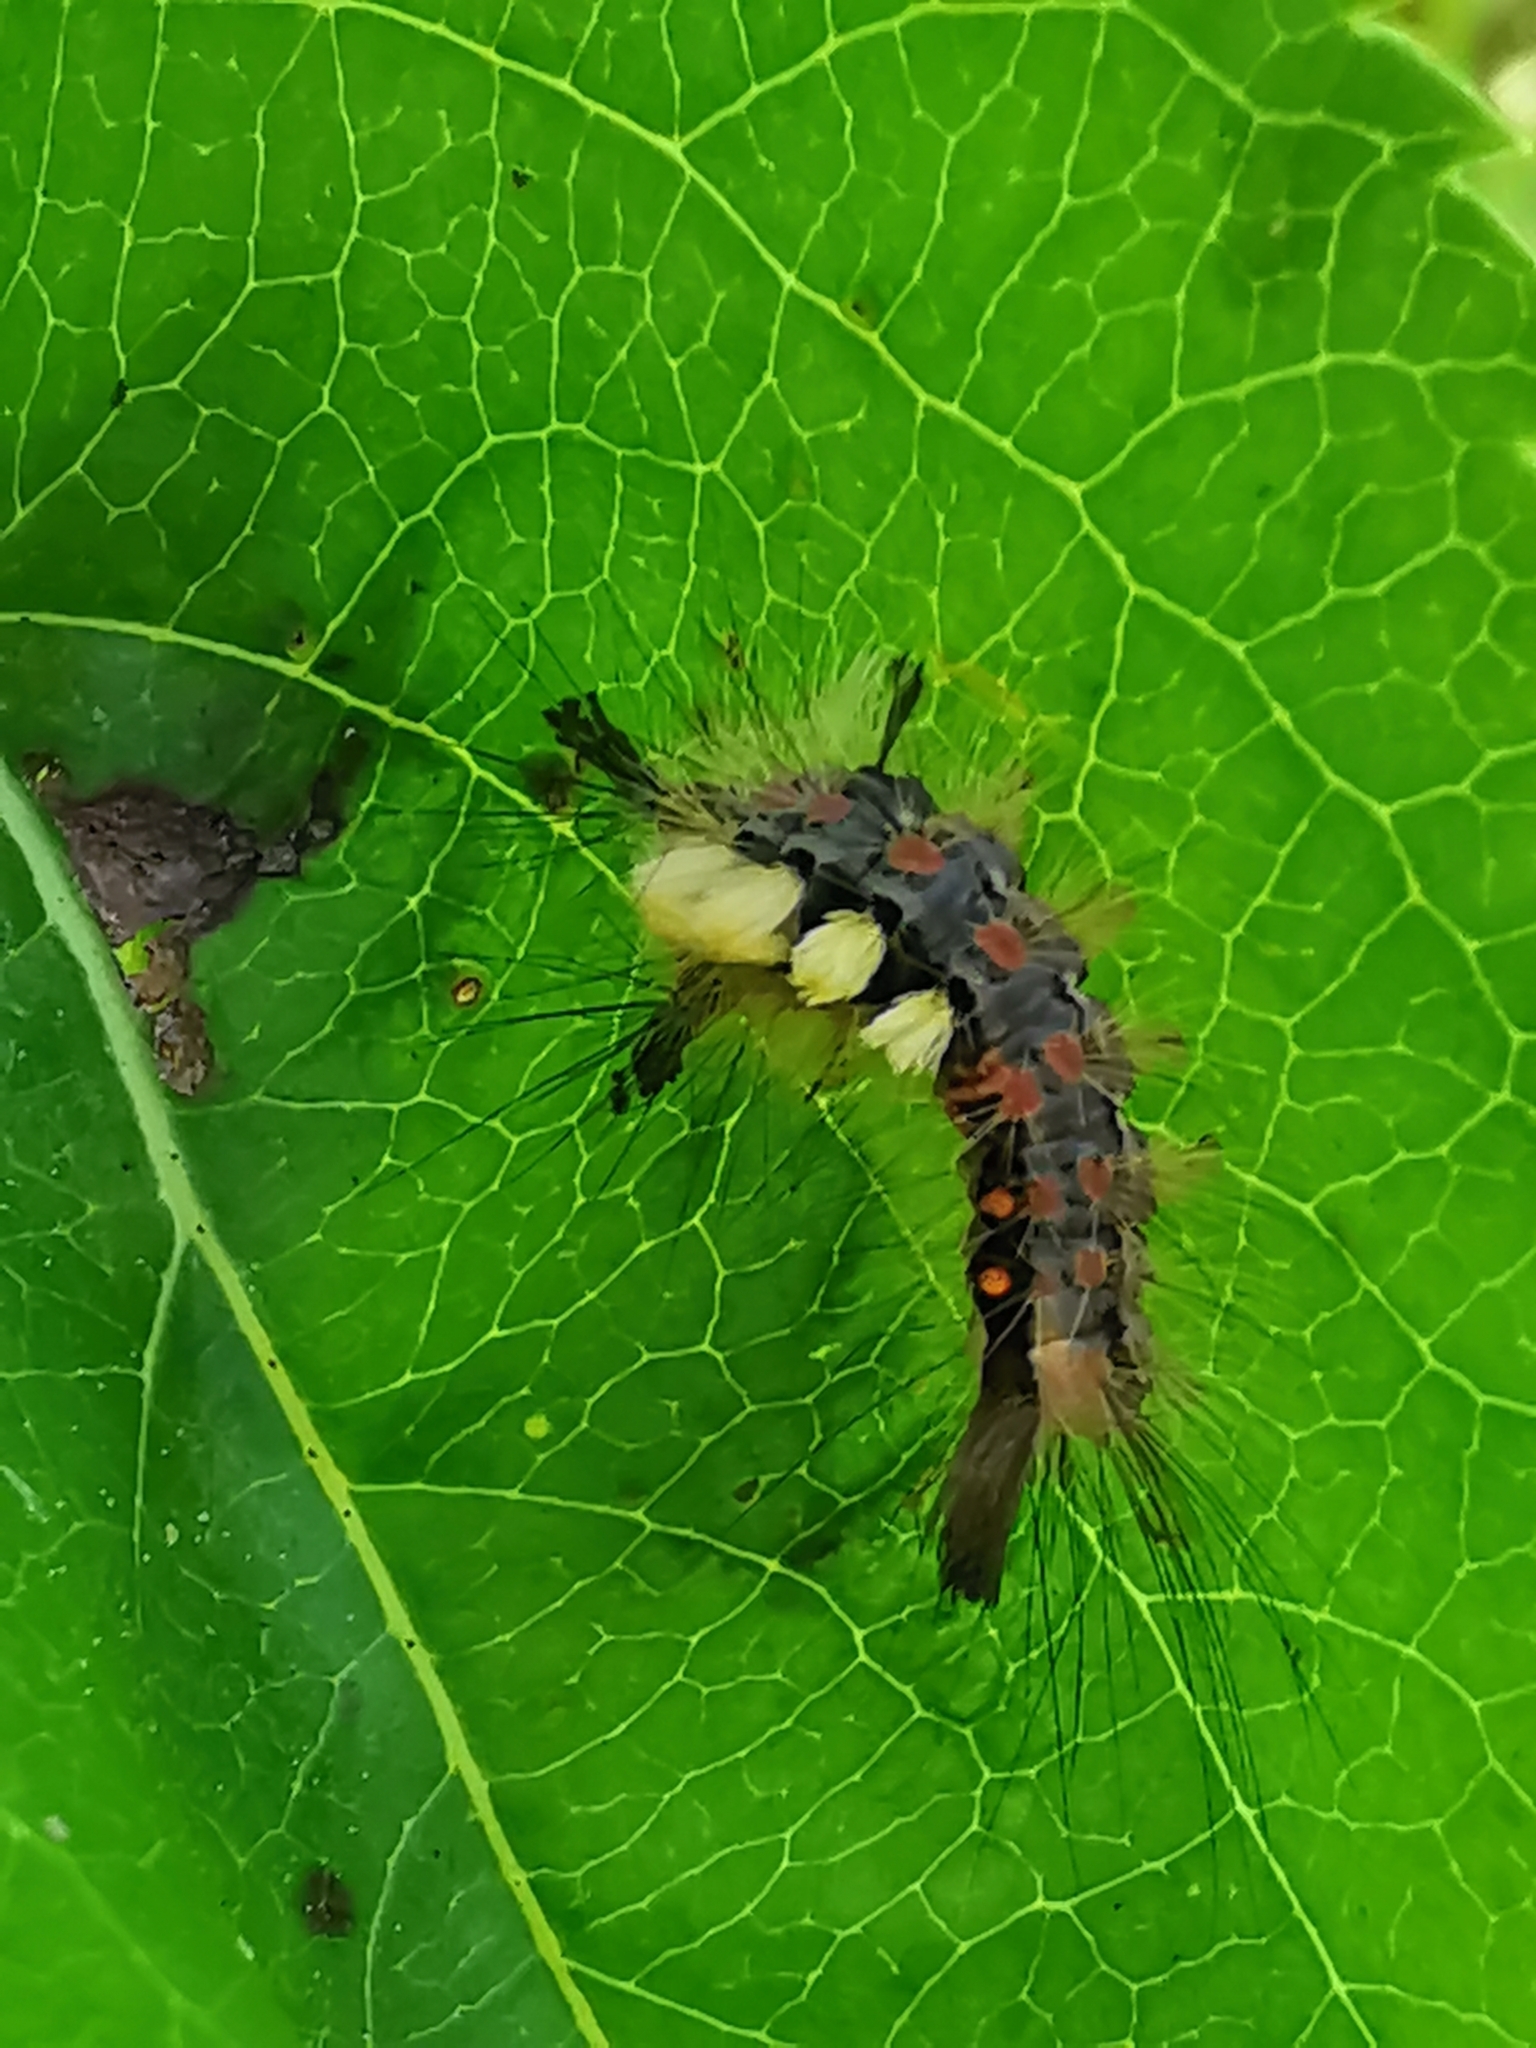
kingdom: Animalia
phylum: Arthropoda
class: Insecta
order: Lepidoptera
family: Erebidae
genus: Orgyia
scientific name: Orgyia antiqua
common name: Vapourer
